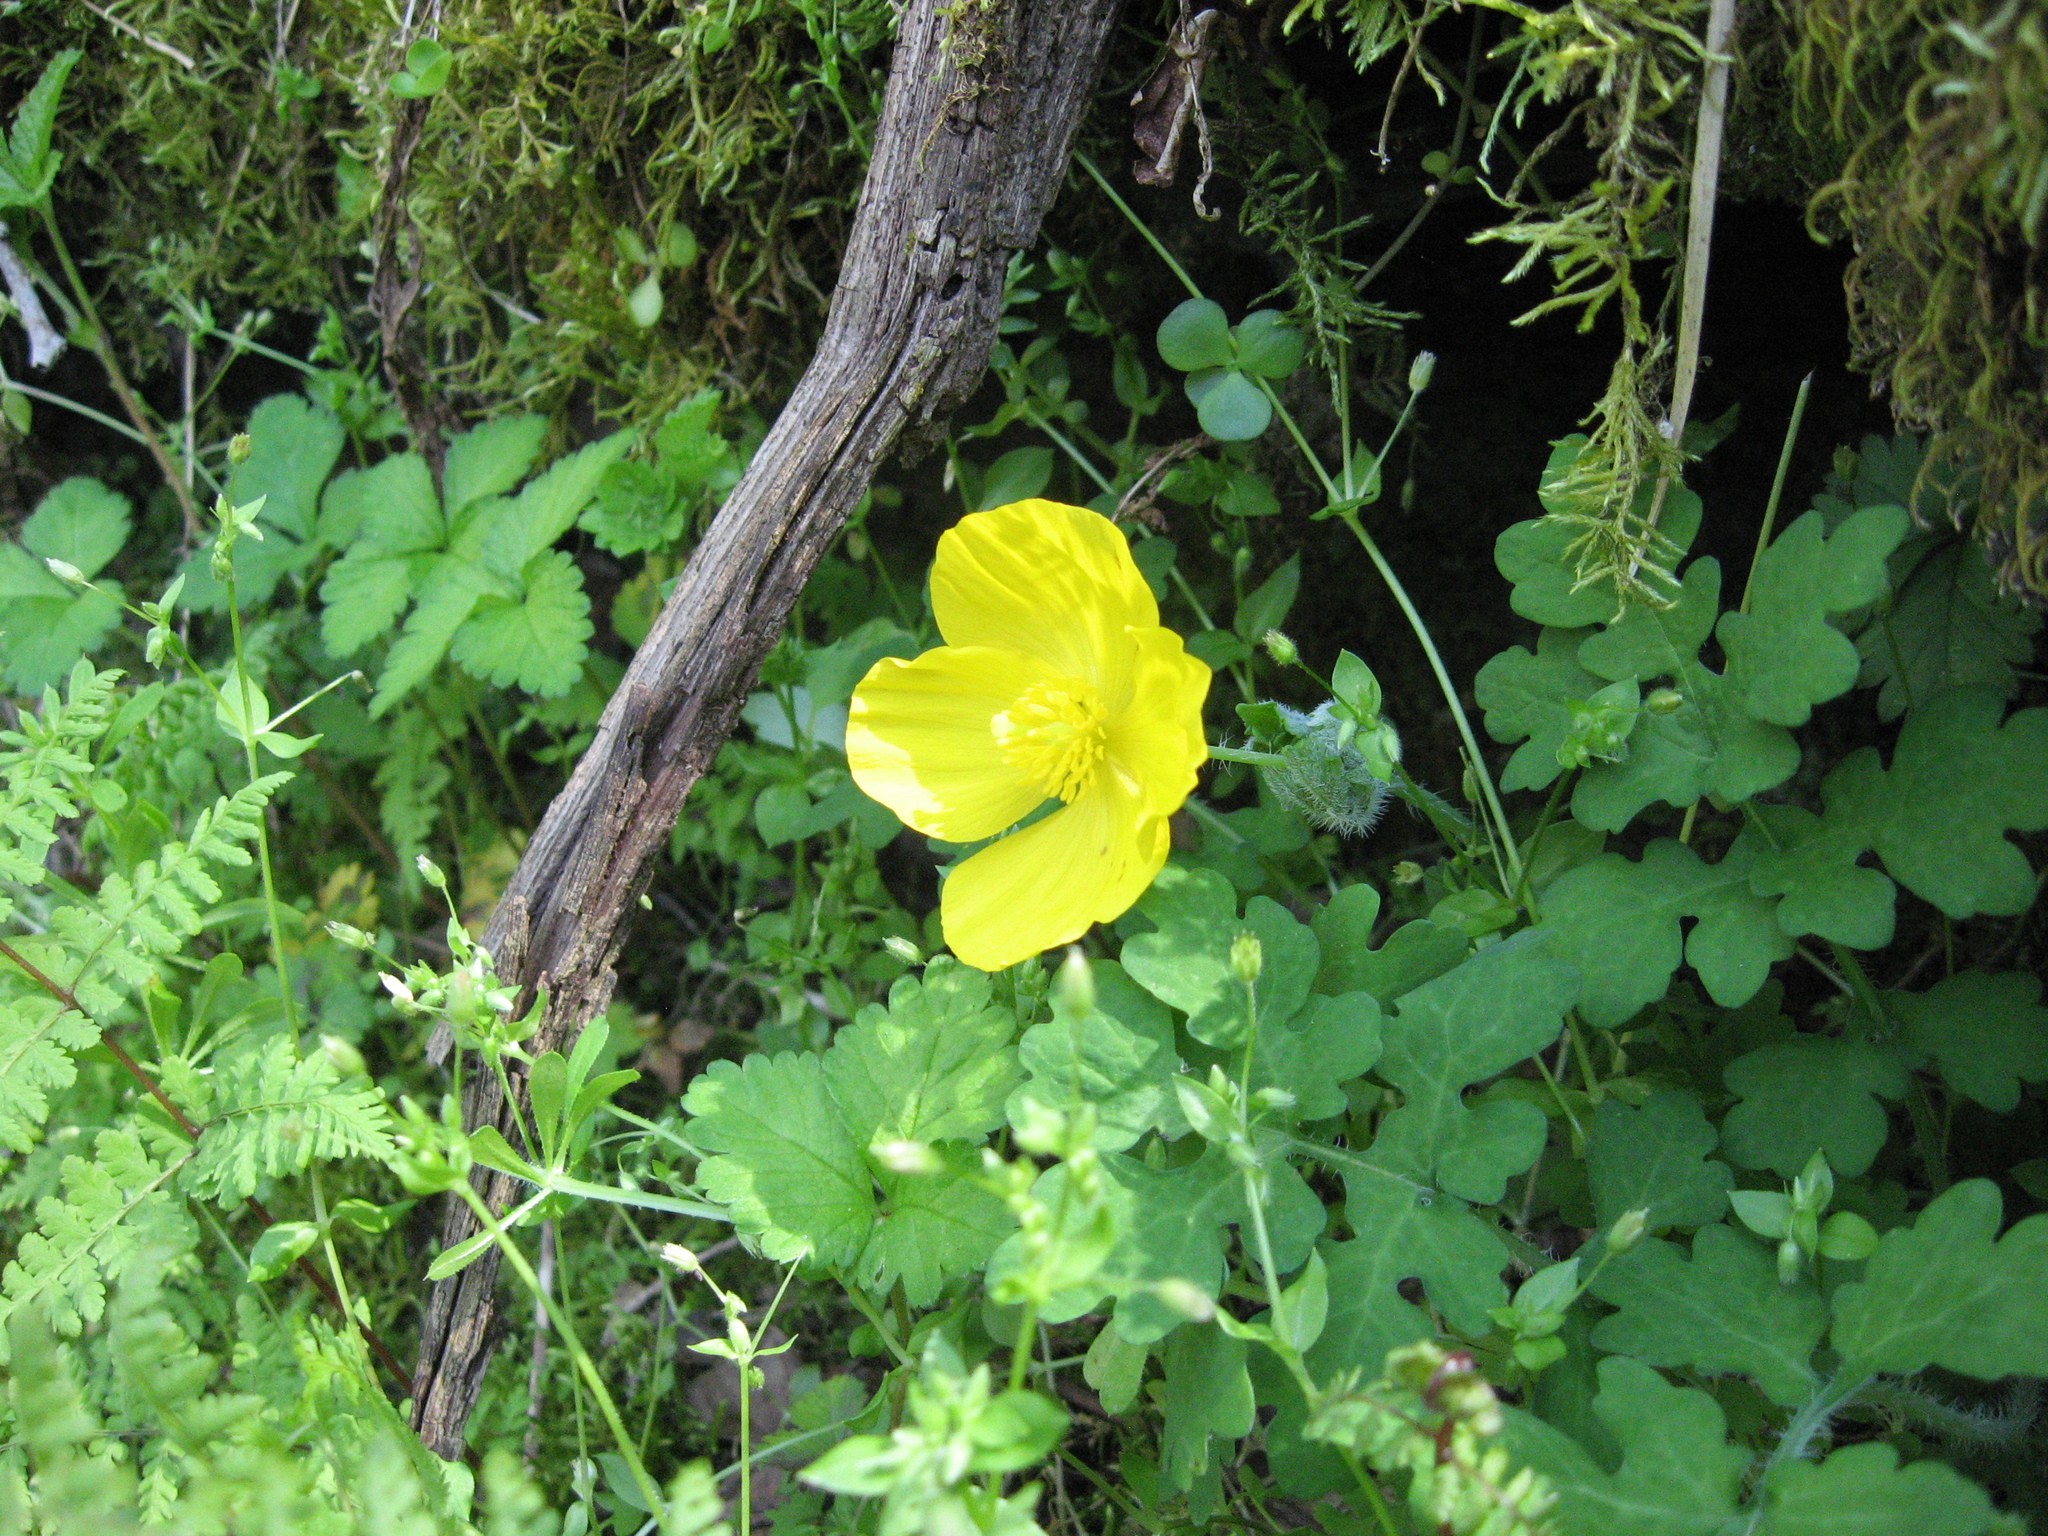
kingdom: Plantae
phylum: Tracheophyta
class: Magnoliopsida
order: Ranunculales
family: Papaveraceae
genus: Stylophorum
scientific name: Stylophorum diphyllum
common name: Celandine poppy
